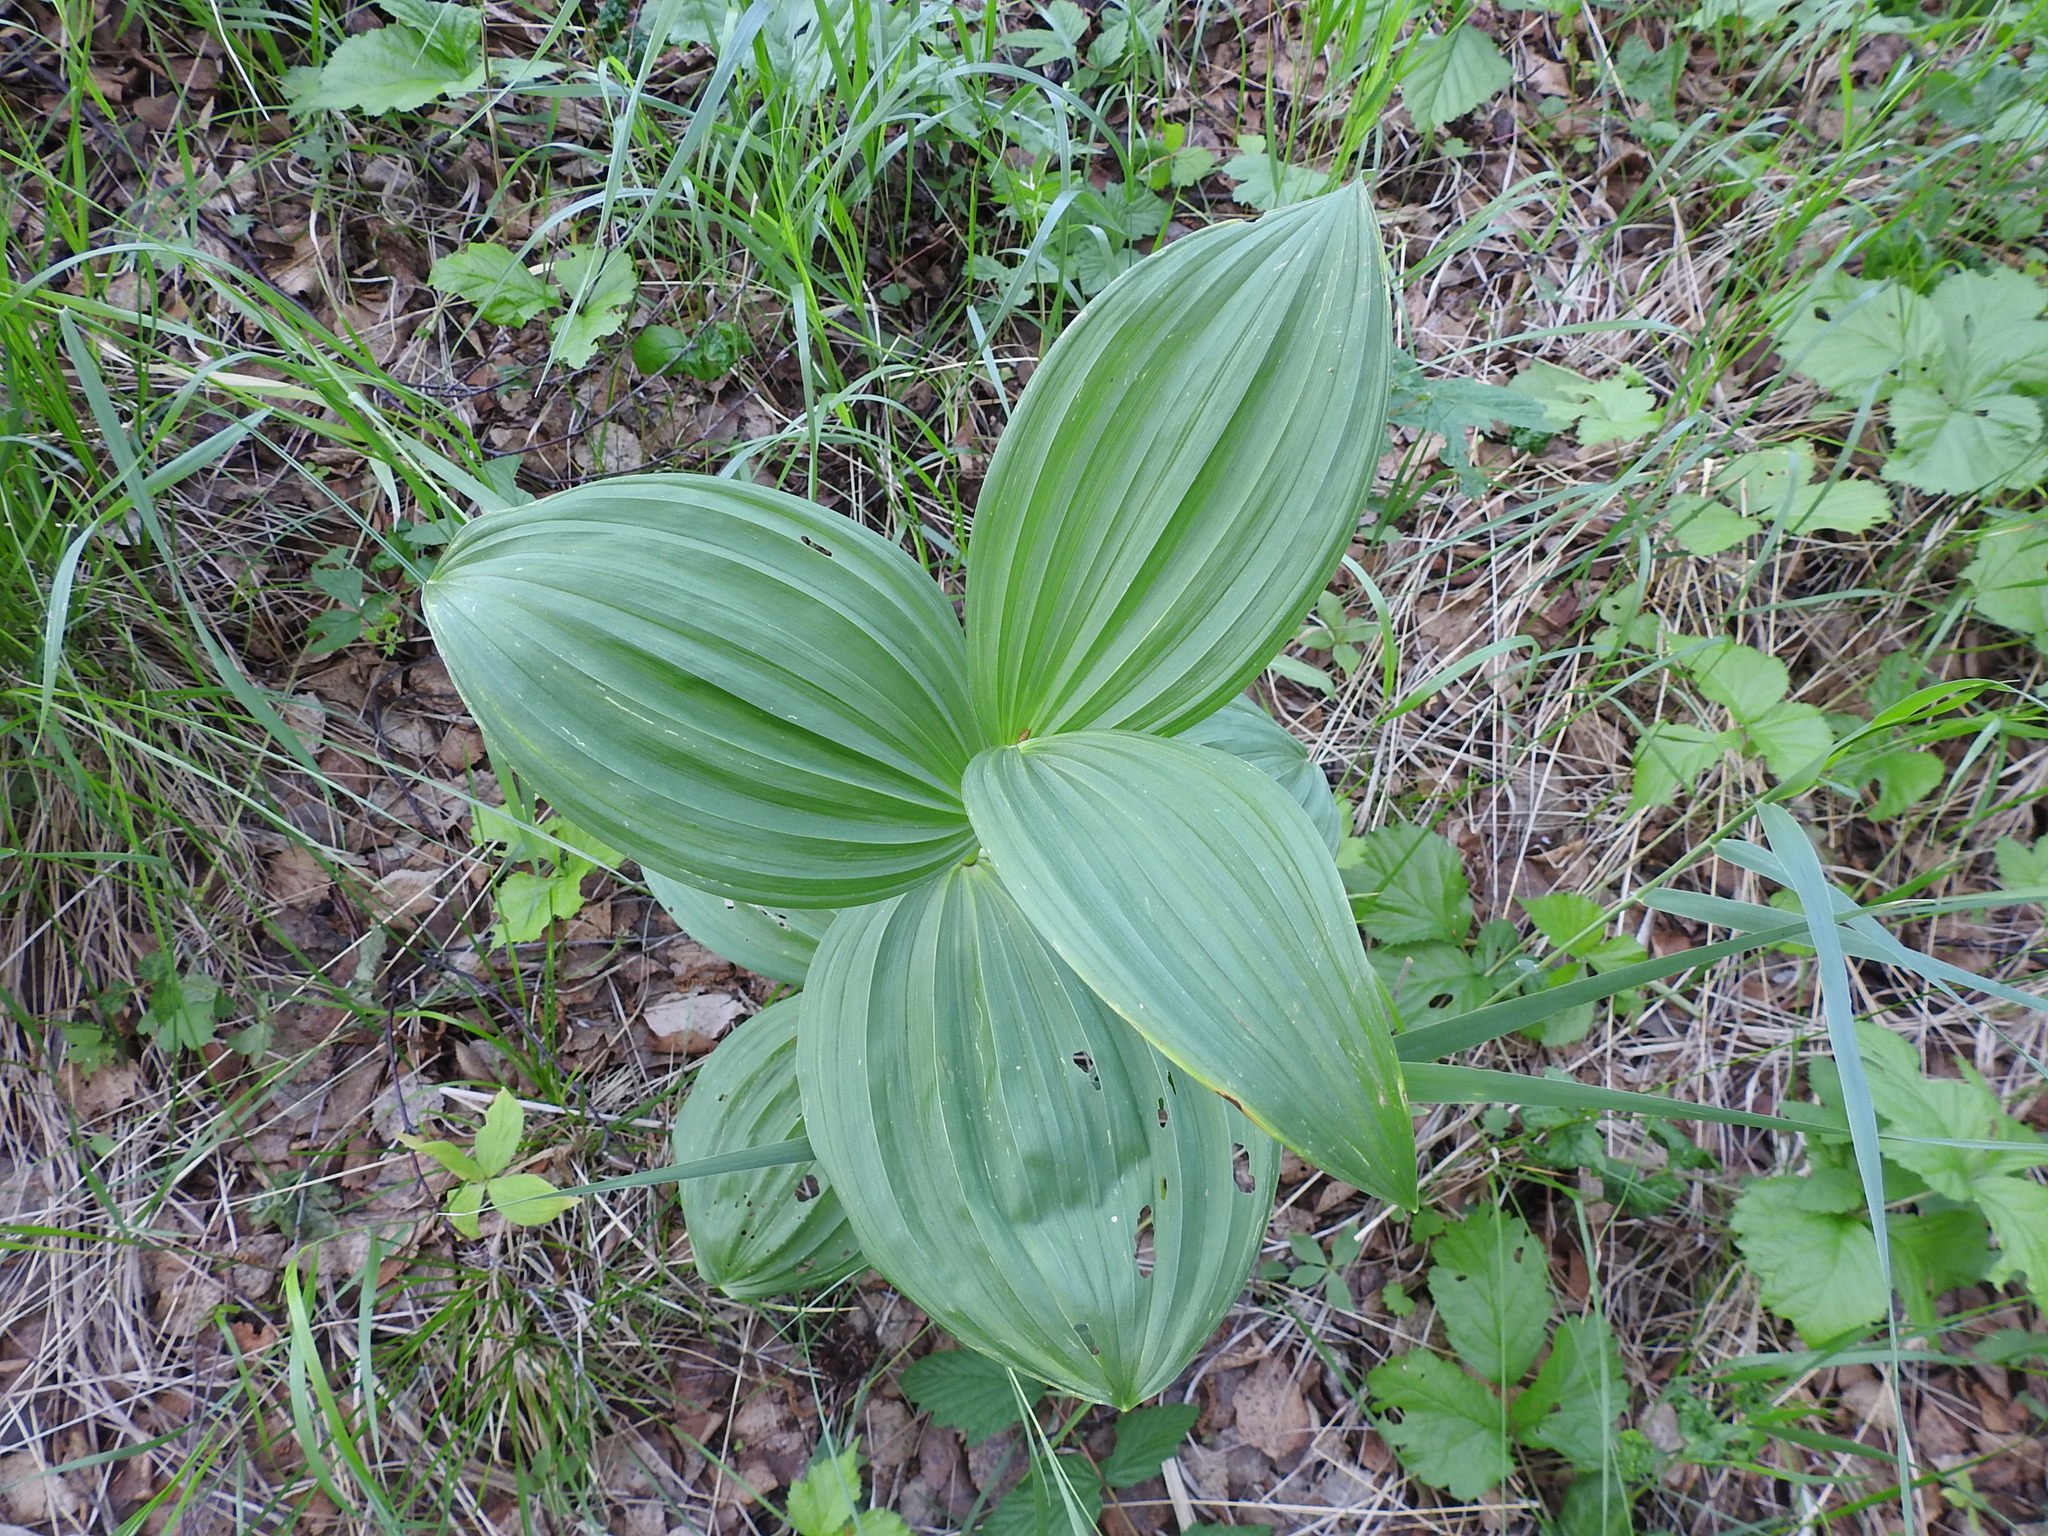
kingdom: Plantae
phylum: Tracheophyta
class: Liliopsida
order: Liliales
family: Melanthiaceae
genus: Veratrum
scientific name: Veratrum lobelianum
